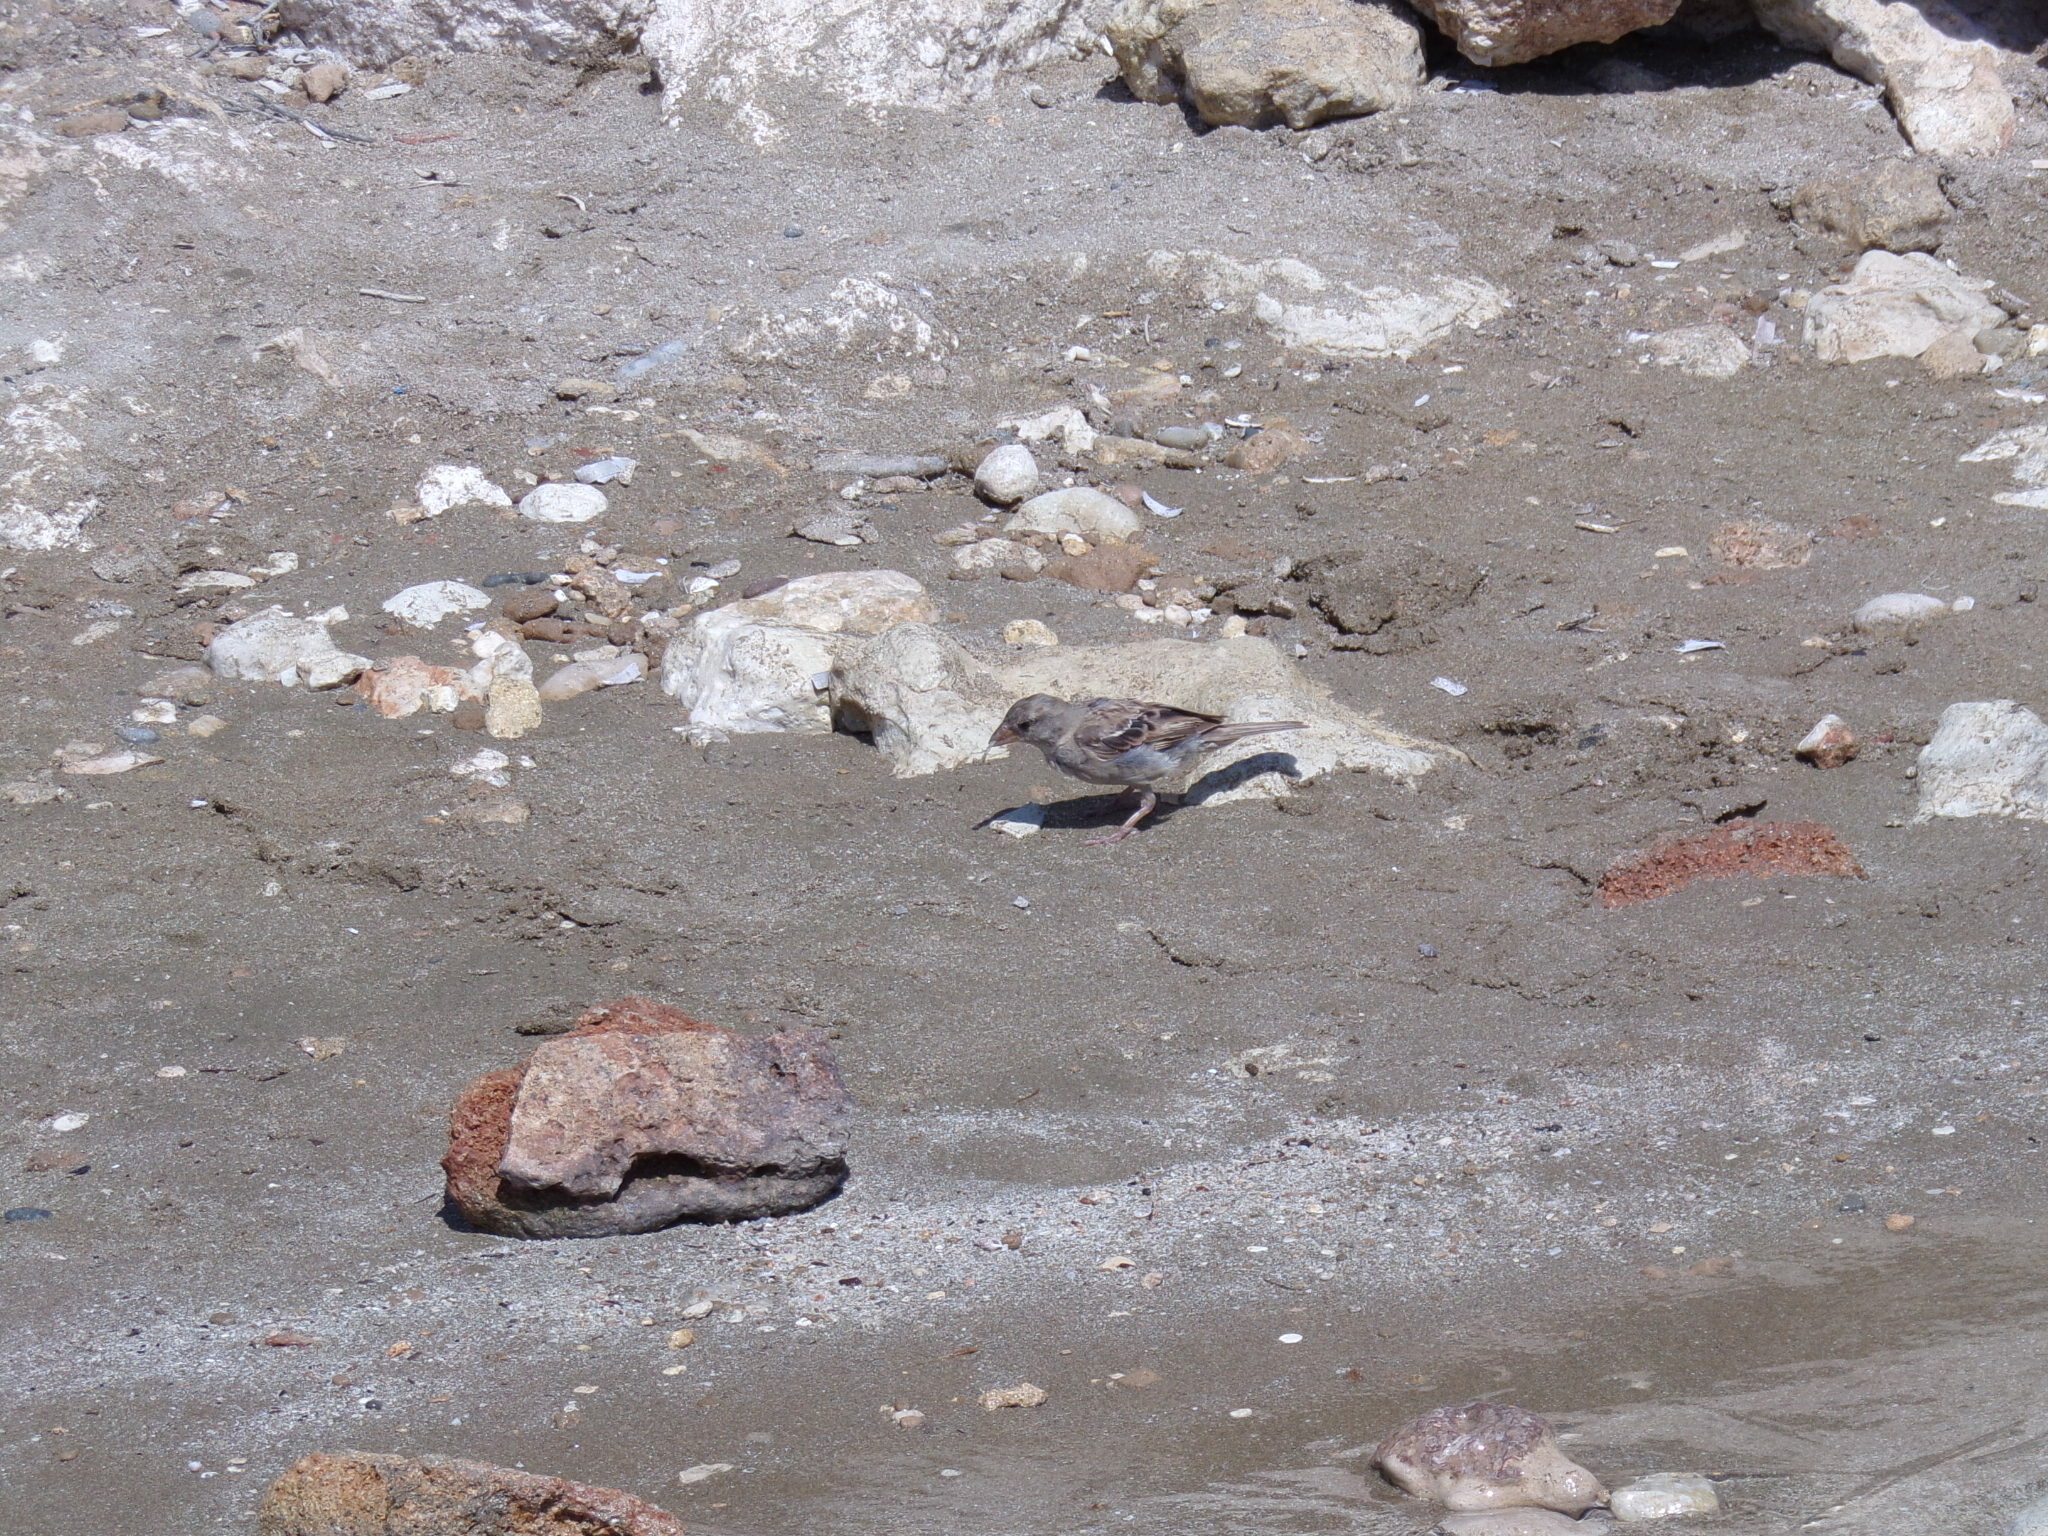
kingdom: Animalia
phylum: Chordata
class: Aves
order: Passeriformes
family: Passeridae
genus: Passer
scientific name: Passer domesticus
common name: House sparrow
